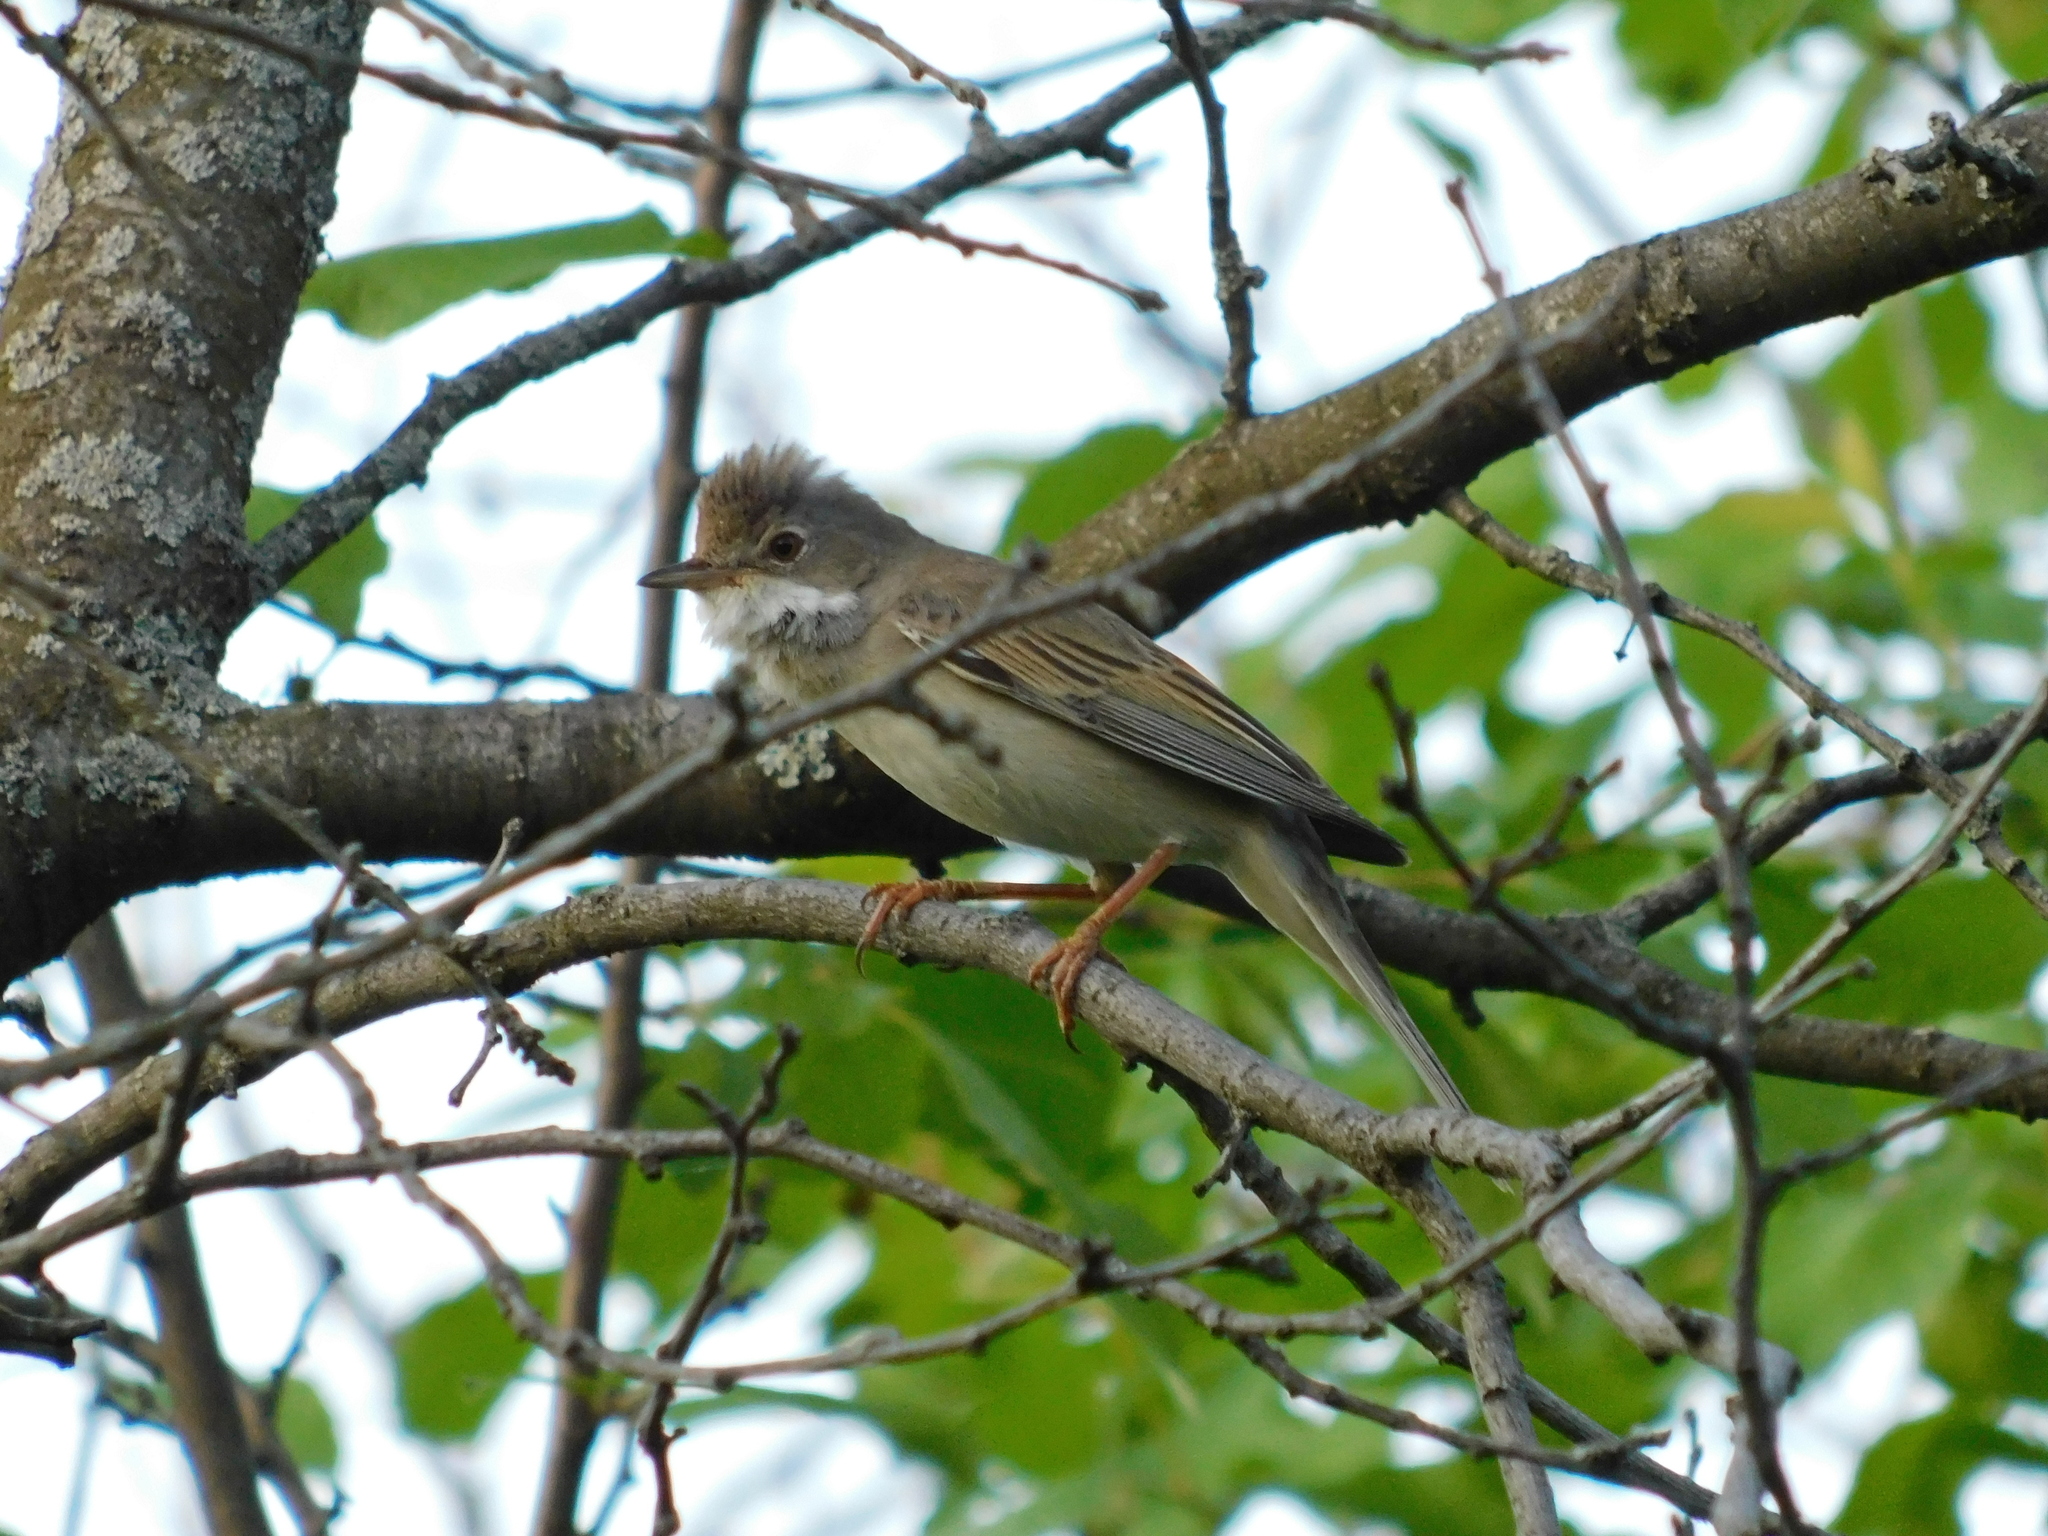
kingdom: Animalia
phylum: Chordata
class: Aves
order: Passeriformes
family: Sylviidae
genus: Sylvia
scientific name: Sylvia communis
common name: Common whitethroat
